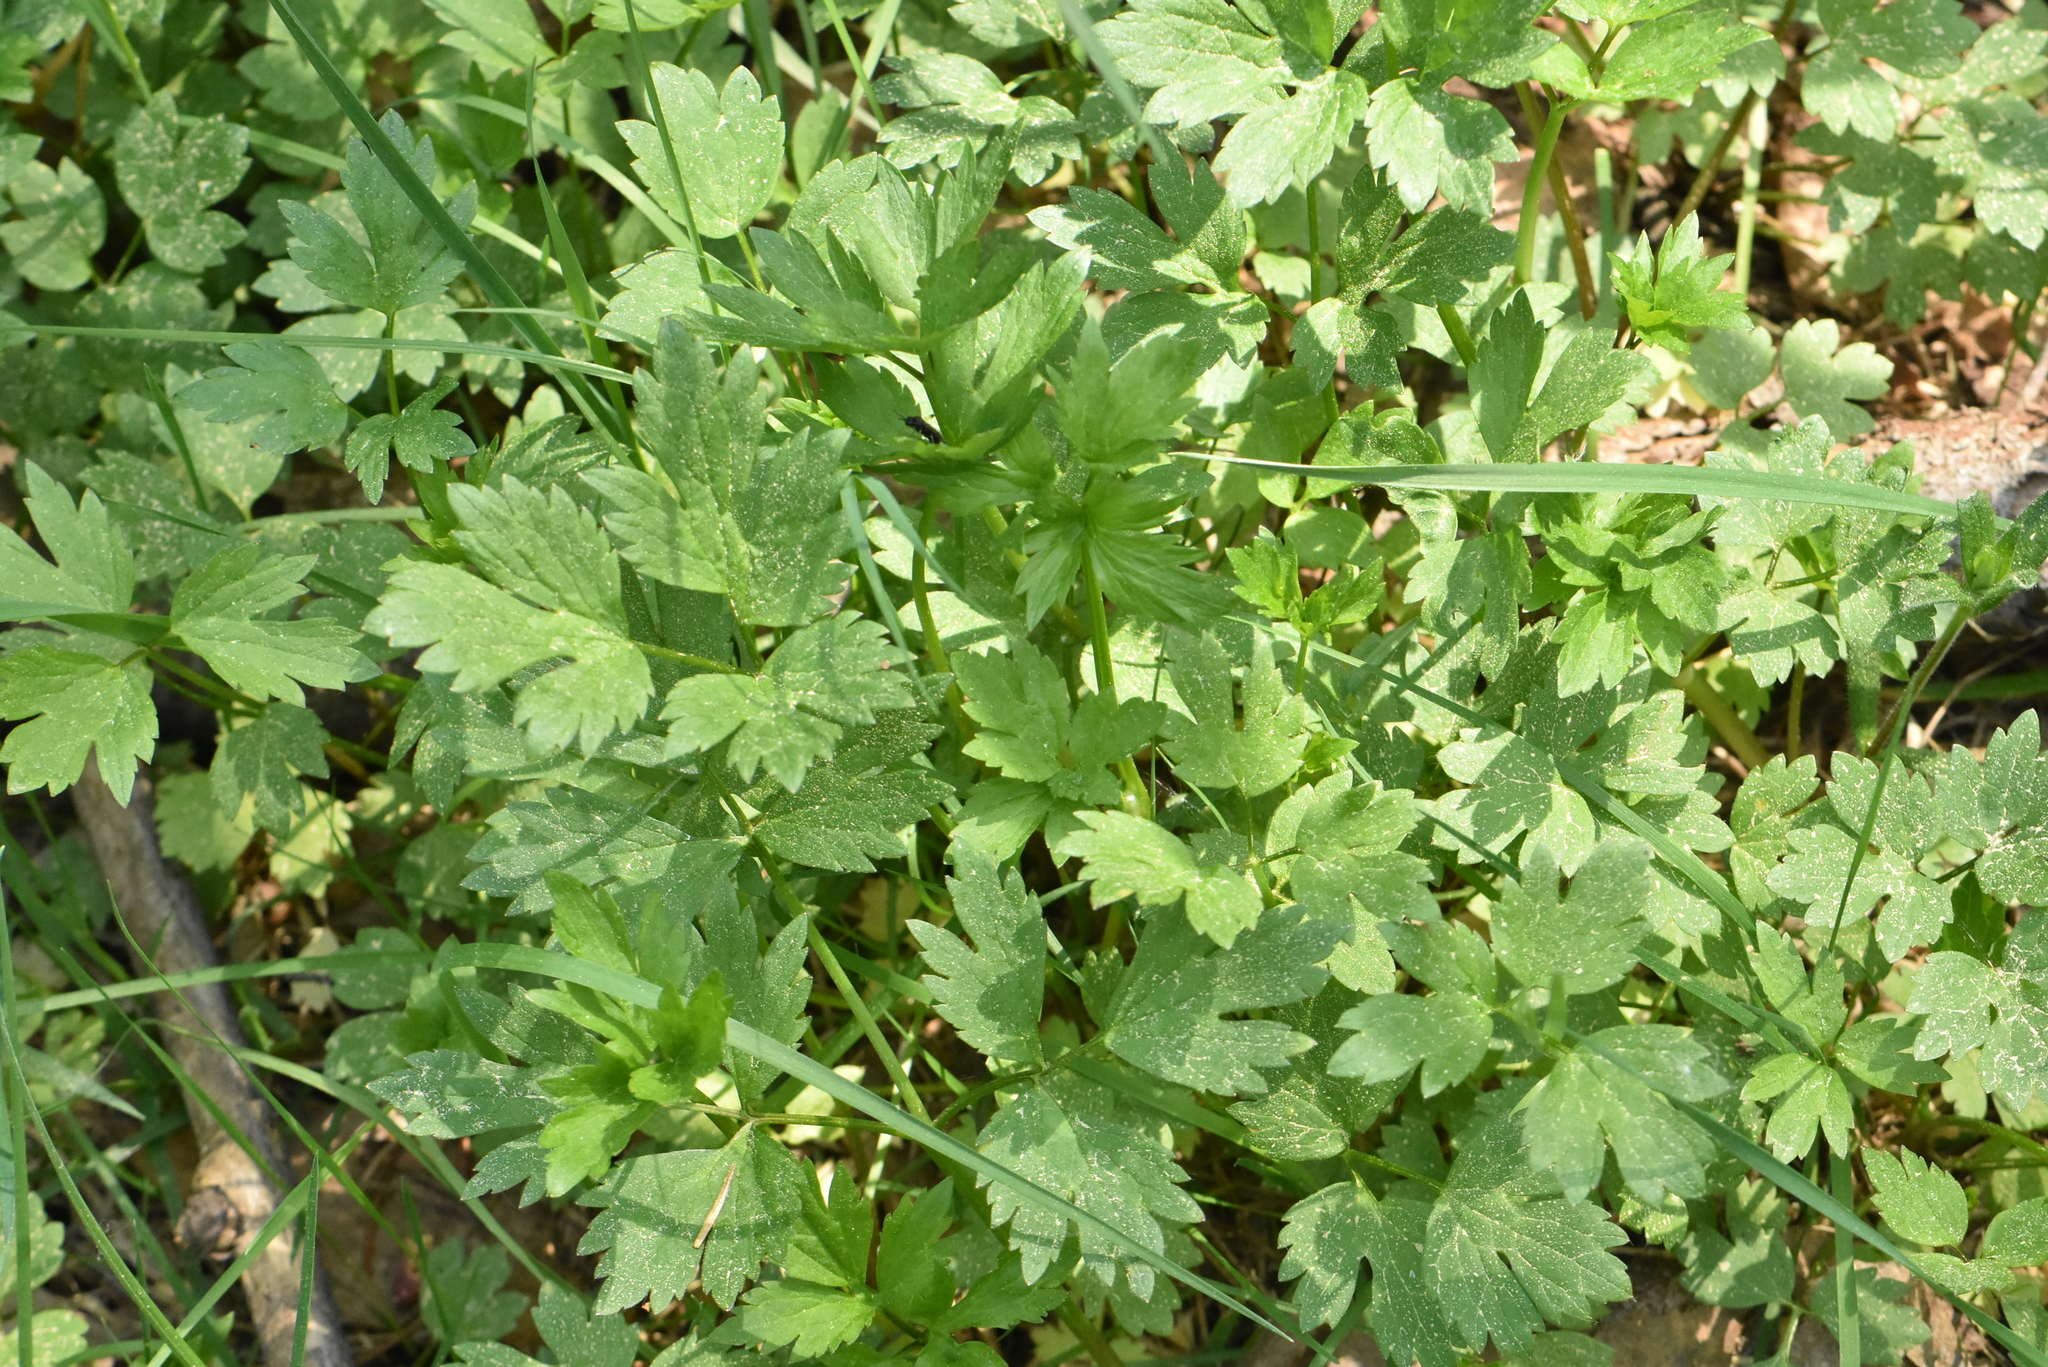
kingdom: Plantae
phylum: Tracheophyta
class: Magnoliopsida
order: Ranunculales
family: Ranunculaceae
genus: Ranunculus
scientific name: Ranunculus repens
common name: Creeping buttercup
